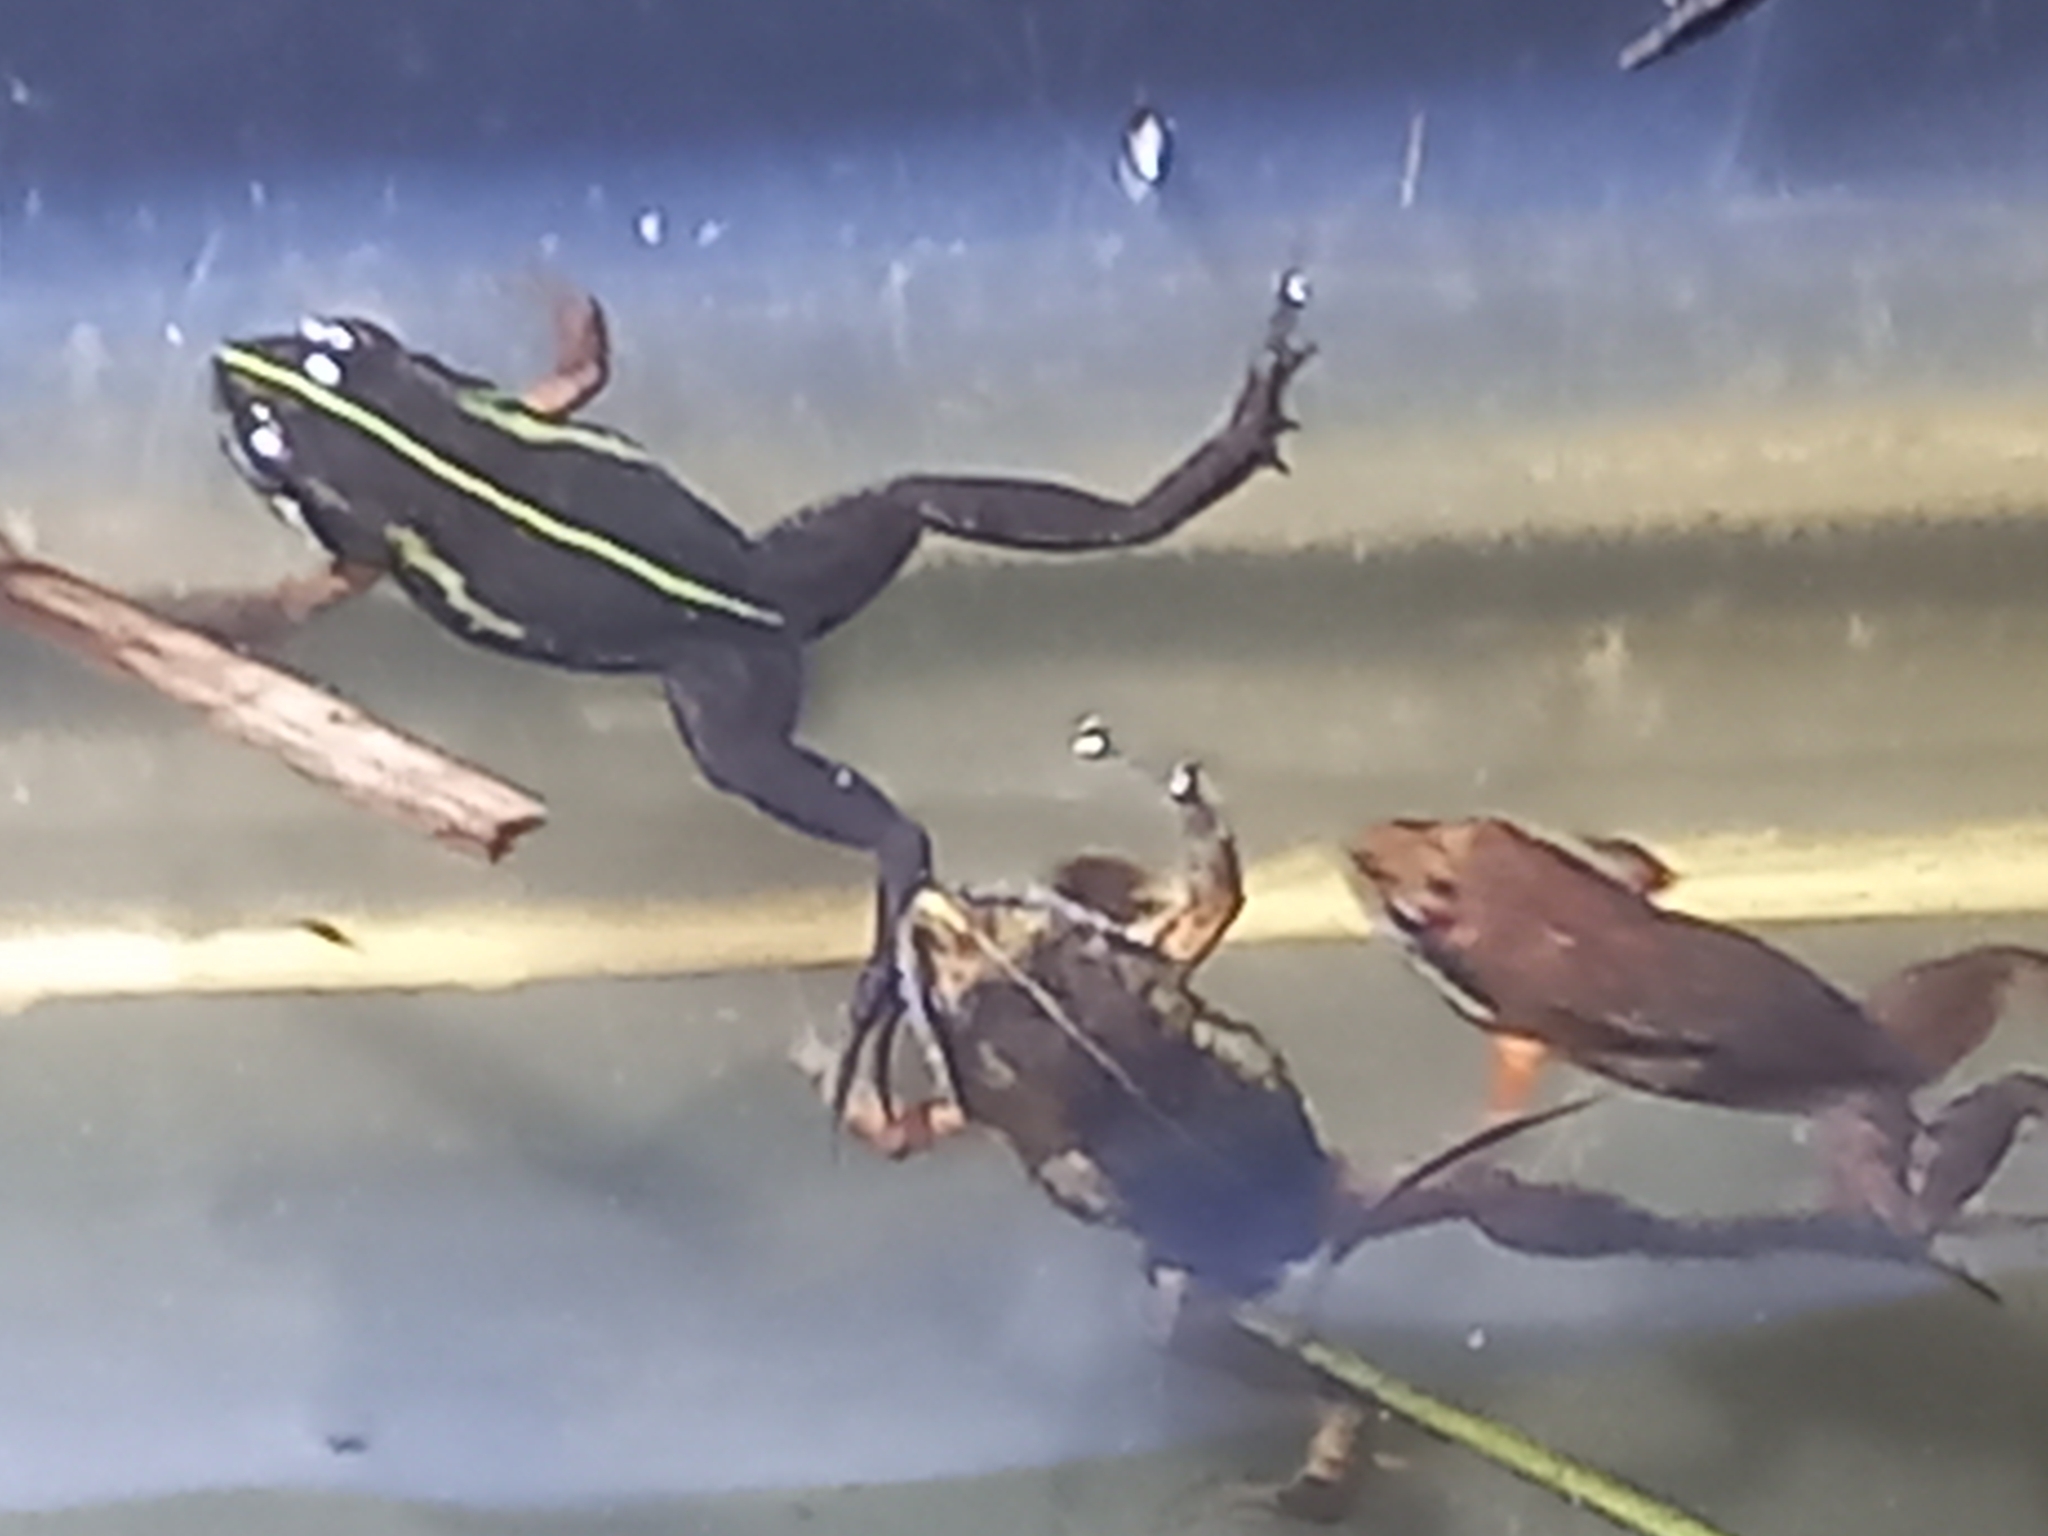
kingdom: Animalia
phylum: Chordata
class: Amphibia
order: Anura
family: Pyxicephalidae
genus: Microbatrachella
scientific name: Microbatrachella capensis
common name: Cape flats frog
